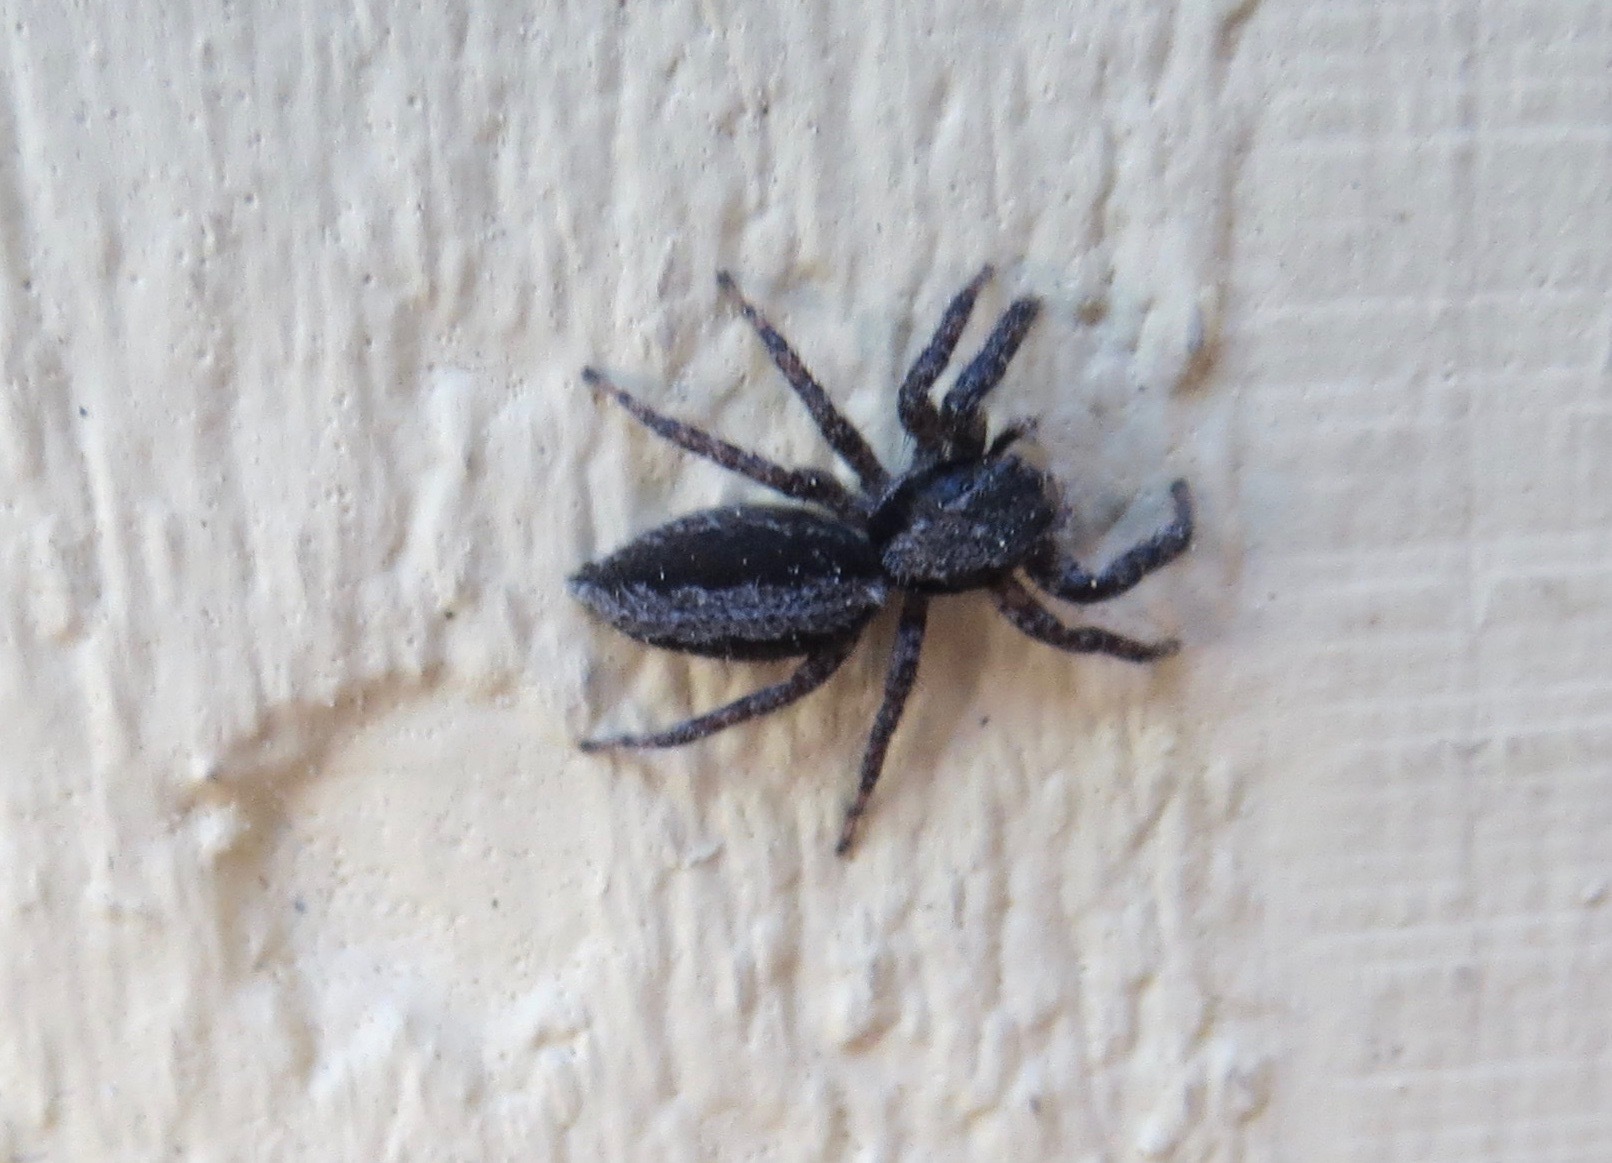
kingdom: Animalia
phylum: Arthropoda
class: Arachnida
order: Araneae
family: Salticidae
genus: Platycryptus
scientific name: Platycryptus californicus
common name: Jumping spiders
